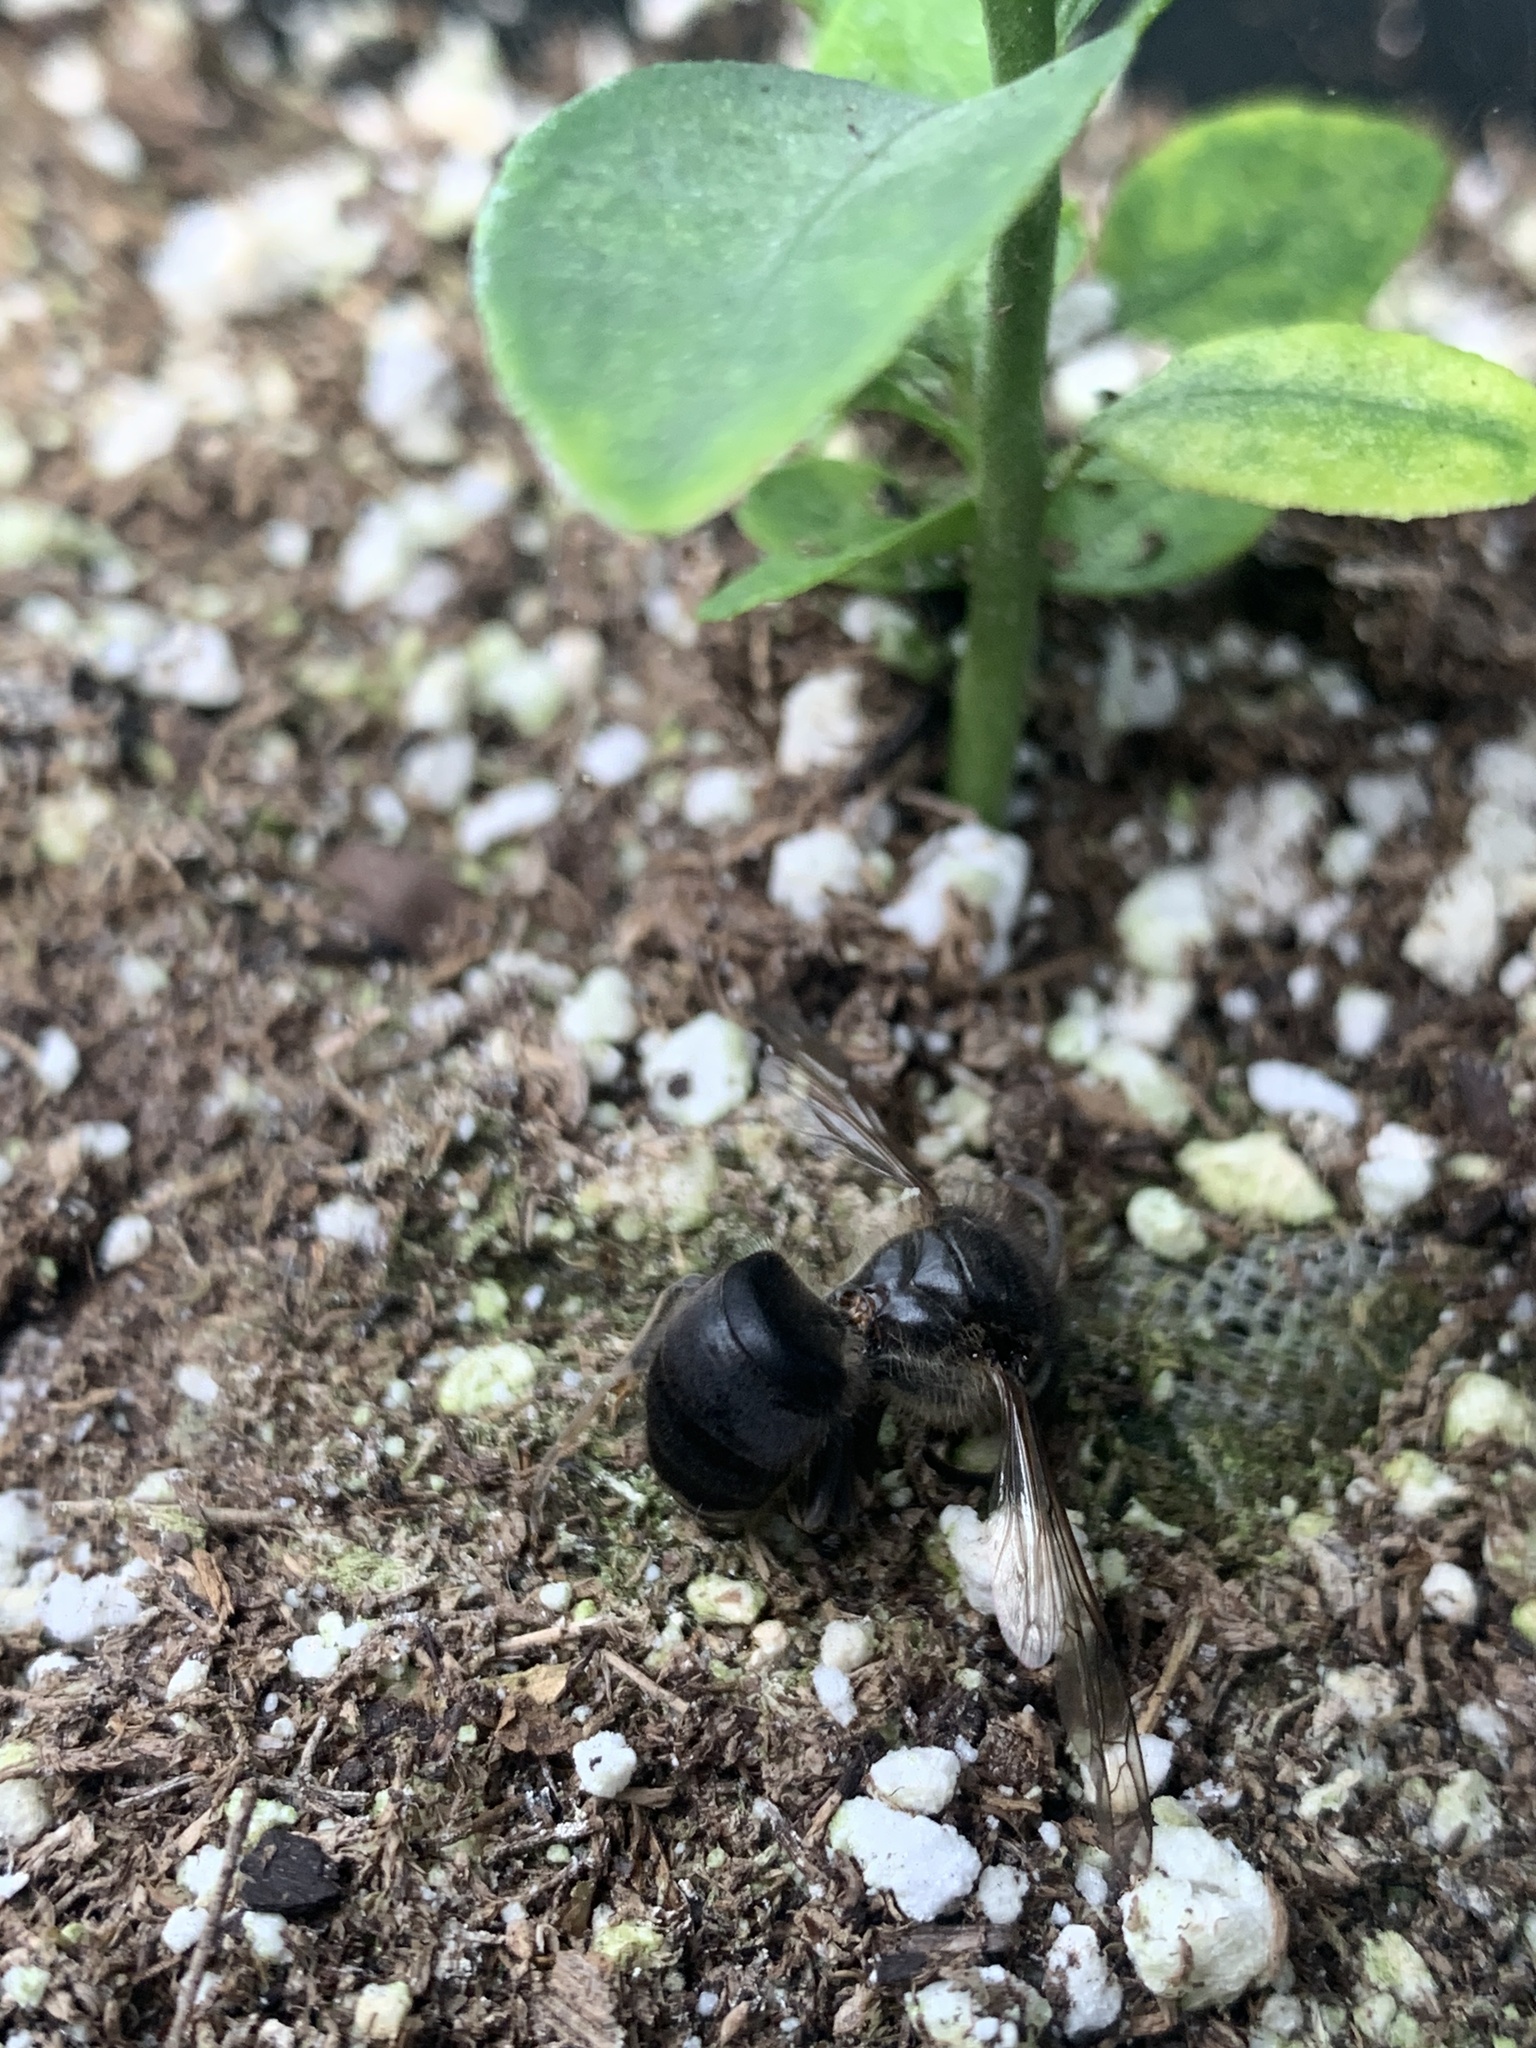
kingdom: Animalia
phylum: Arthropoda
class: Insecta
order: Hymenoptera
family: Vespidae
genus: Dolichovespula
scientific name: Dolichovespula maculata
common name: Bald-faced hornet
